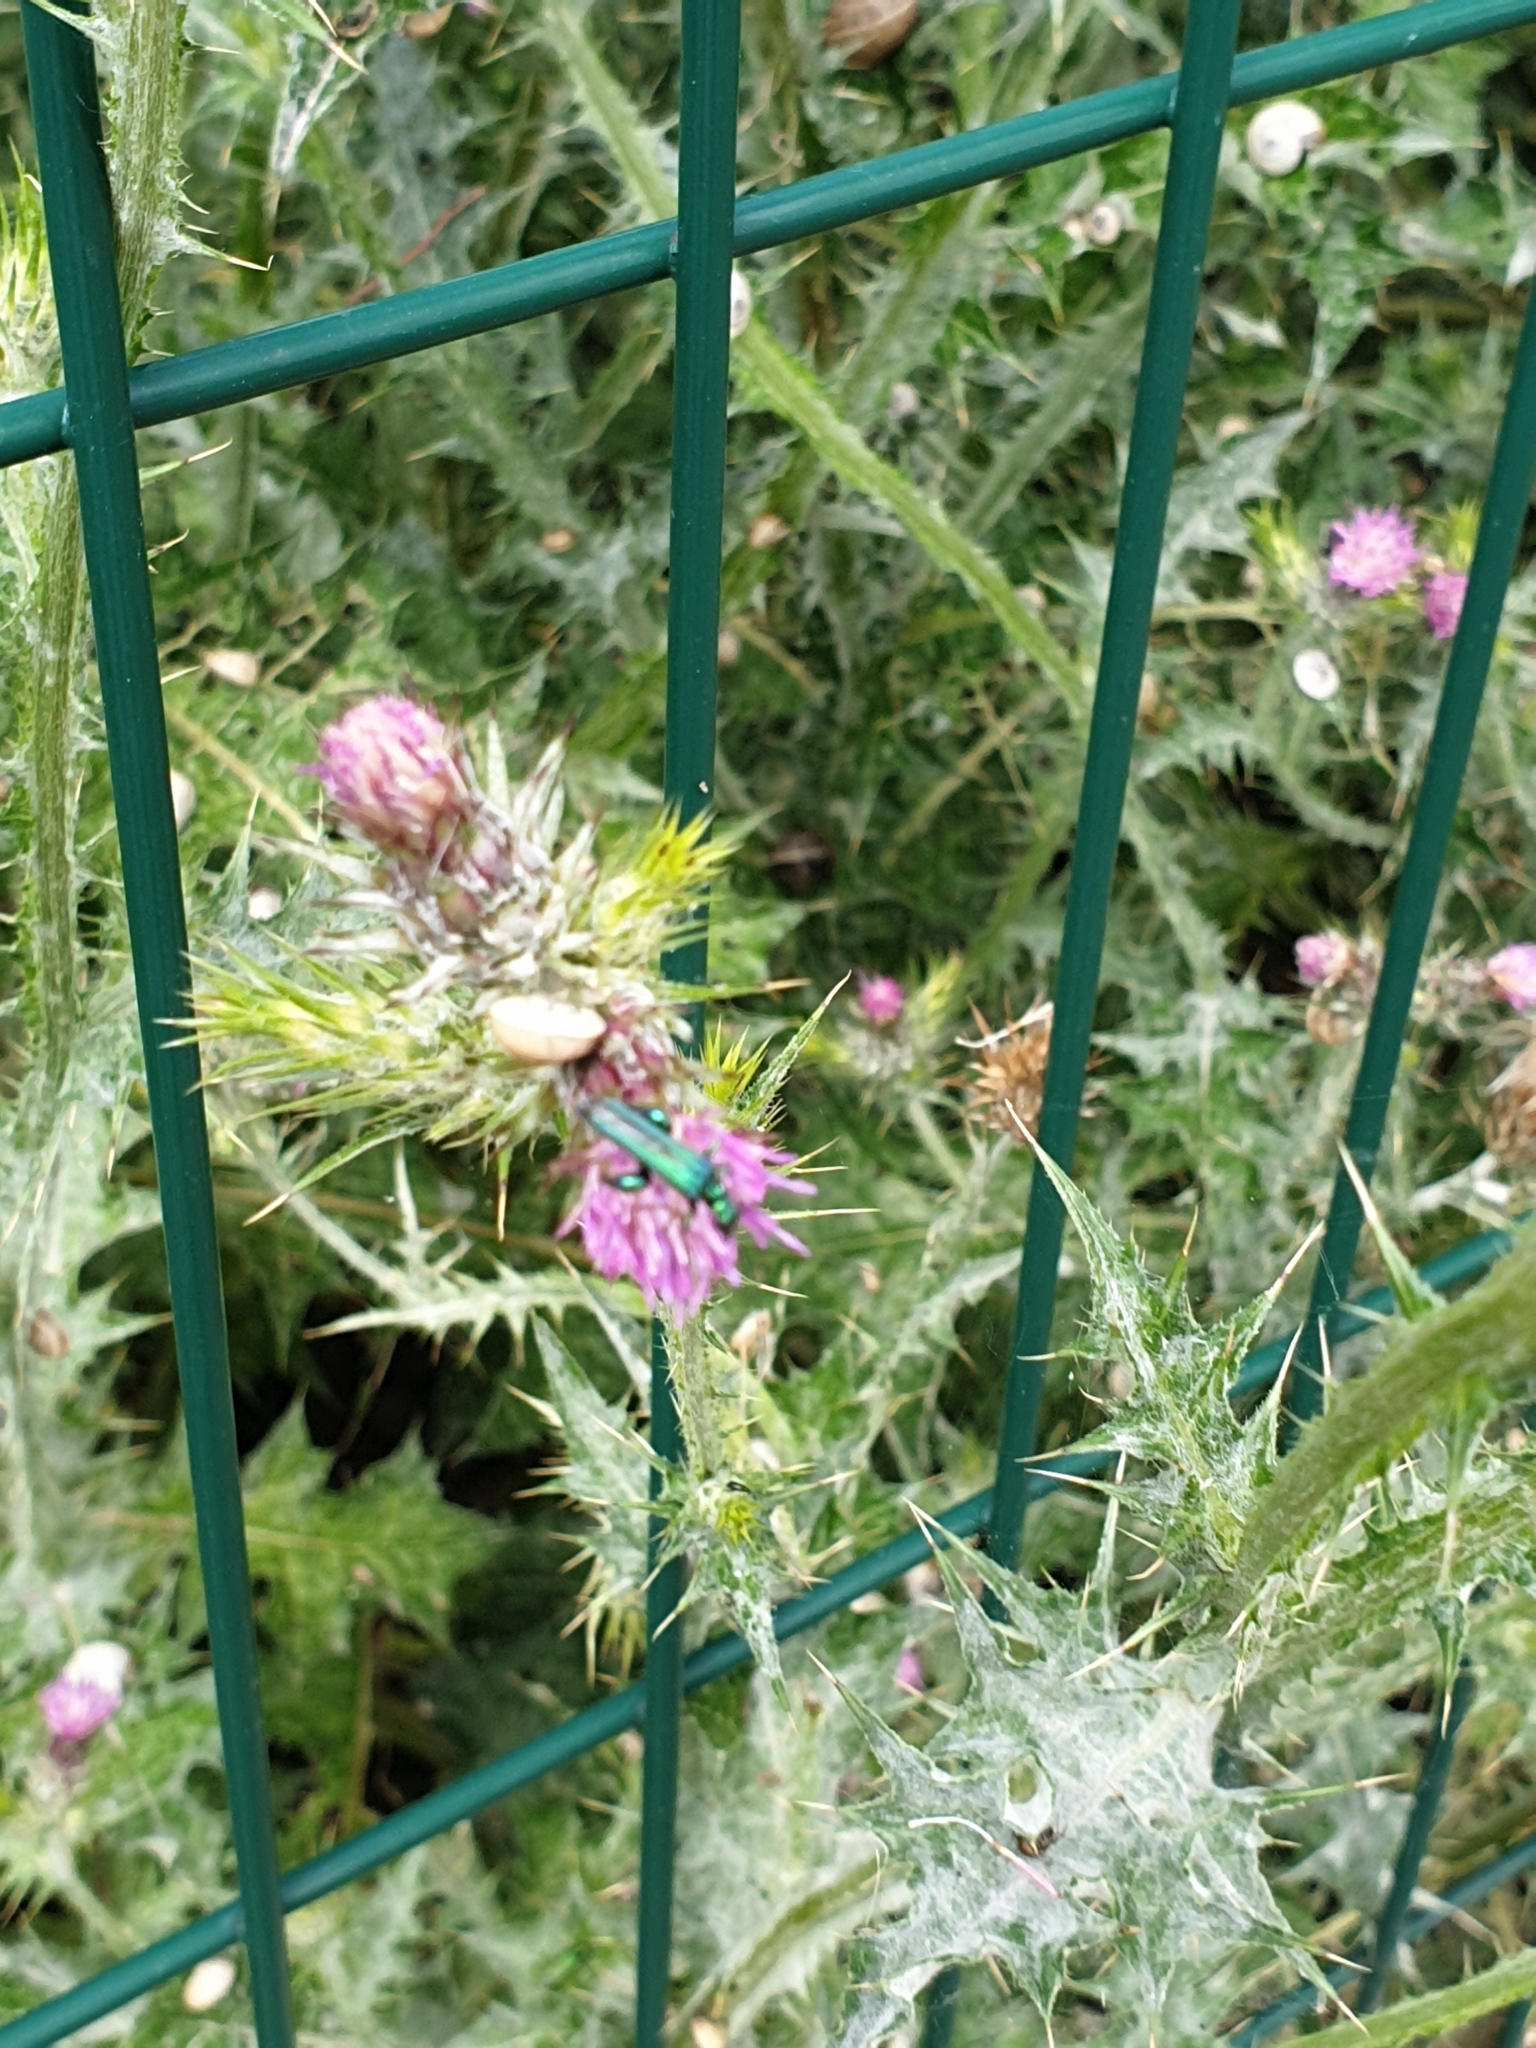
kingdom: Animalia
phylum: Arthropoda
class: Insecta
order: Coleoptera
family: Oedemeridae
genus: Oedemera
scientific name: Oedemera nobilis
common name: Swollen-thighed beetle
